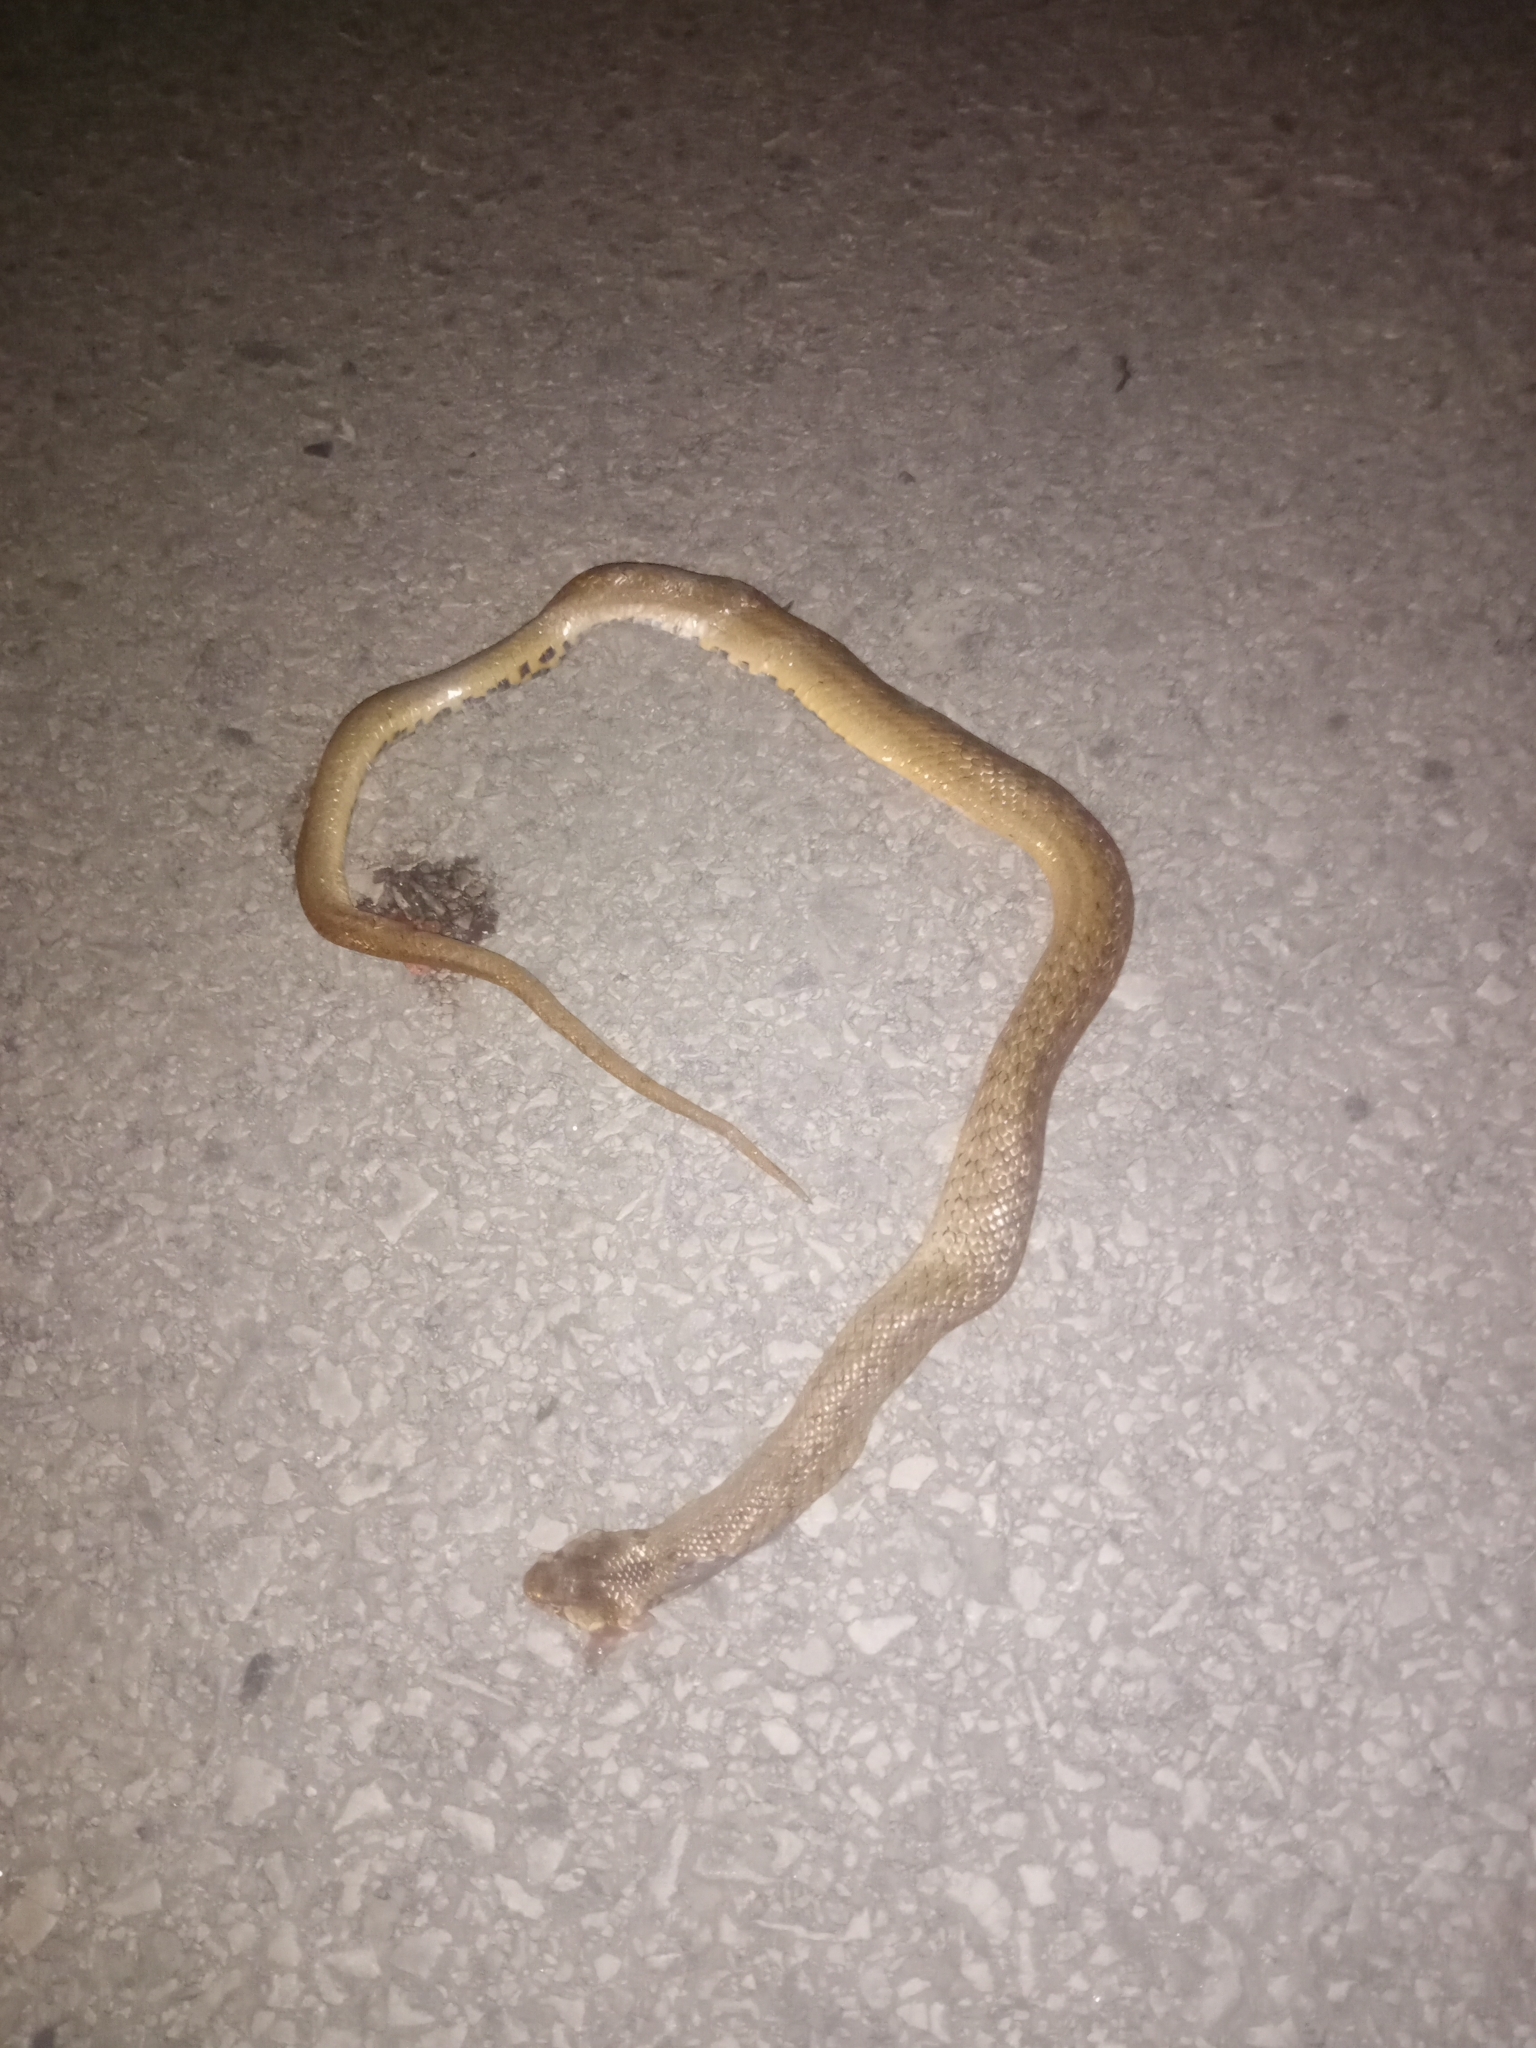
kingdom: Animalia
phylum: Chordata
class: Squamata
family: Colubridae
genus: Macroprotodon
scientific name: Macroprotodon mauritanicus
